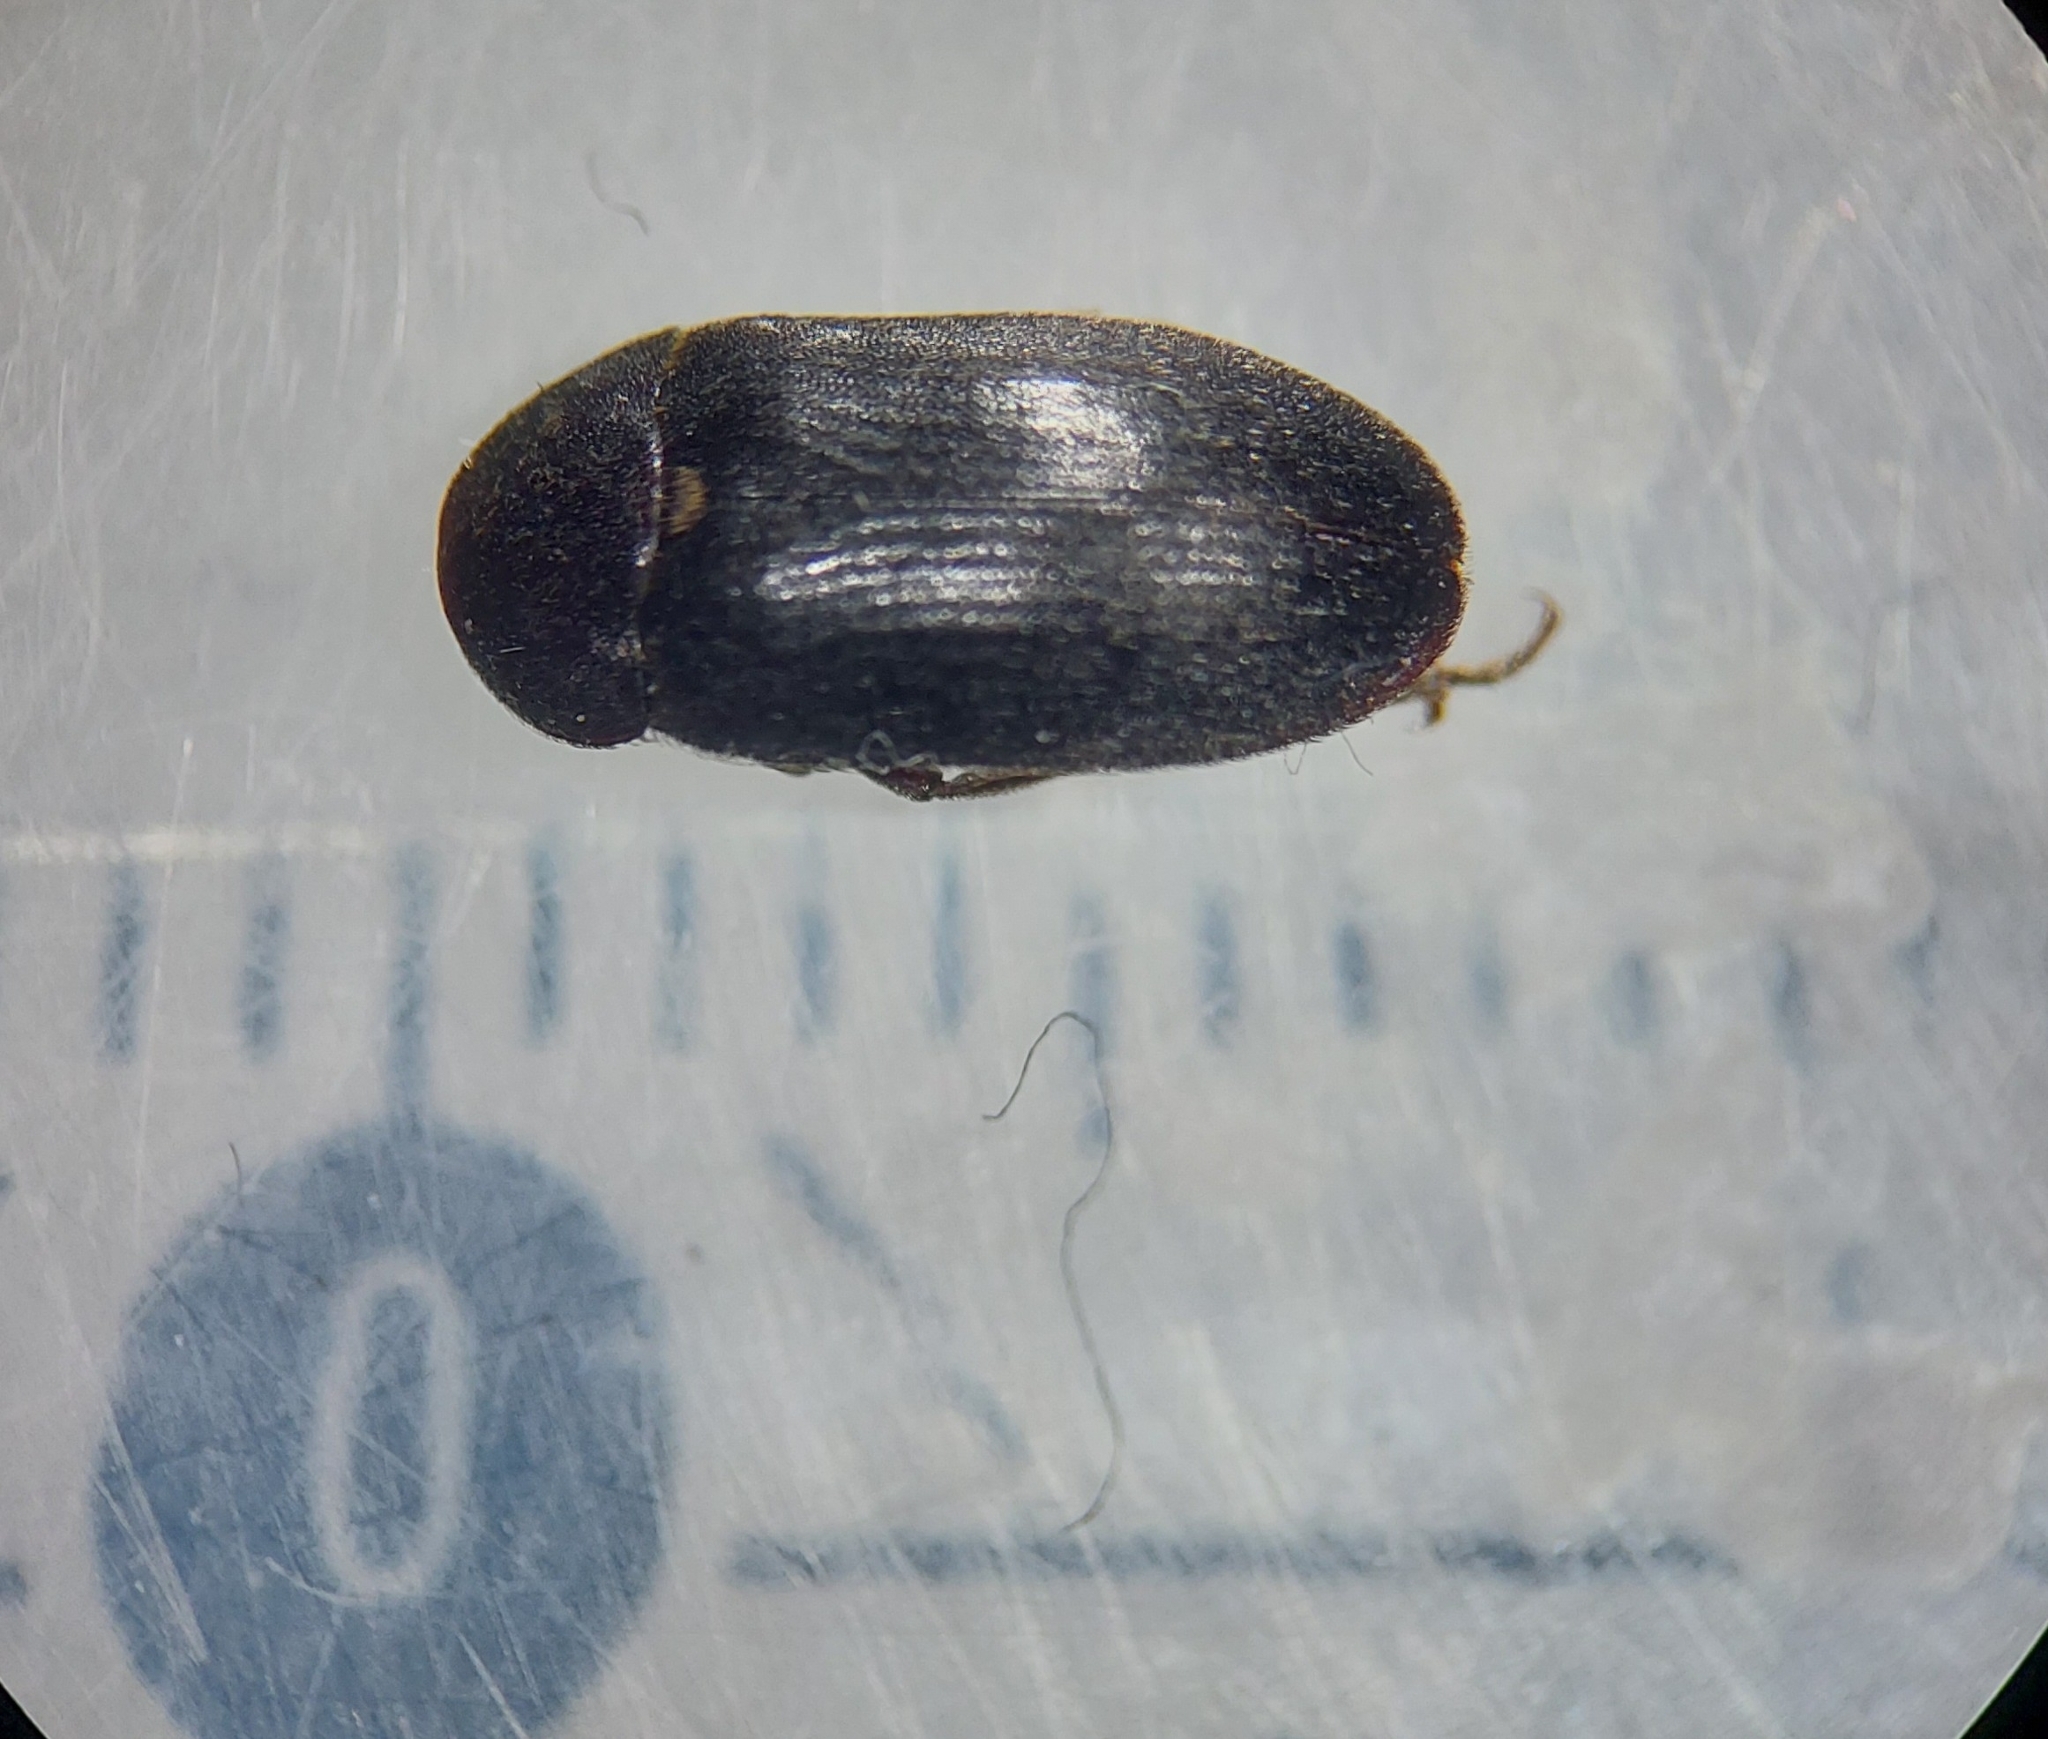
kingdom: Animalia
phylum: Arthropoda
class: Insecta
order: Coleoptera
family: Dermestidae
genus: Dermestes
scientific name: Dermestes bicolor
